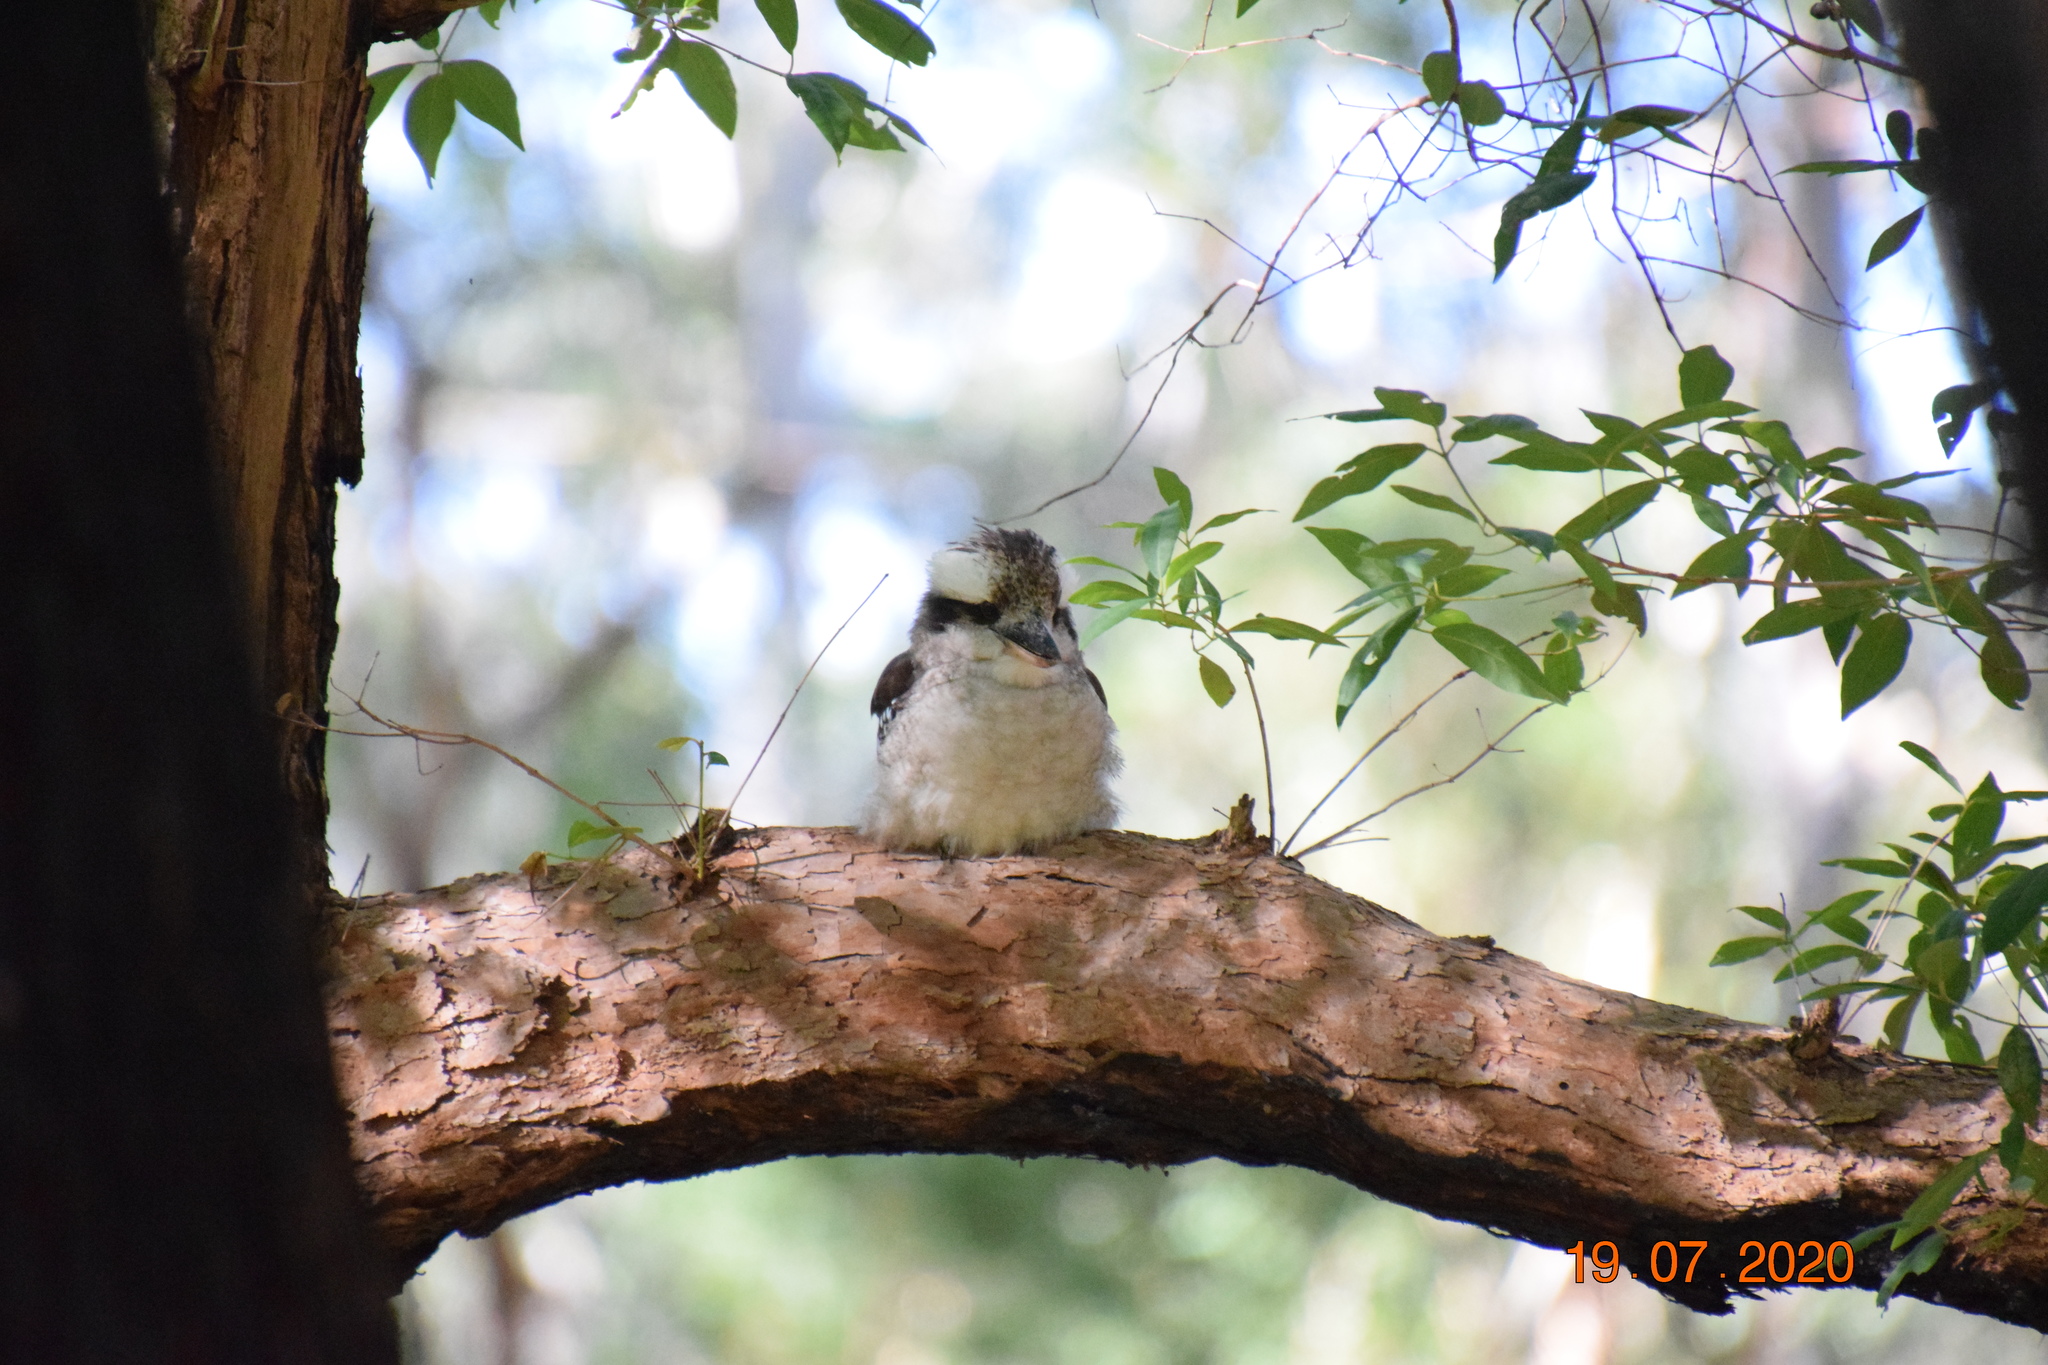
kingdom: Animalia
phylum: Chordata
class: Aves
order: Coraciiformes
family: Alcedinidae
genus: Dacelo
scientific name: Dacelo novaeguineae
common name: Laughing kookaburra
